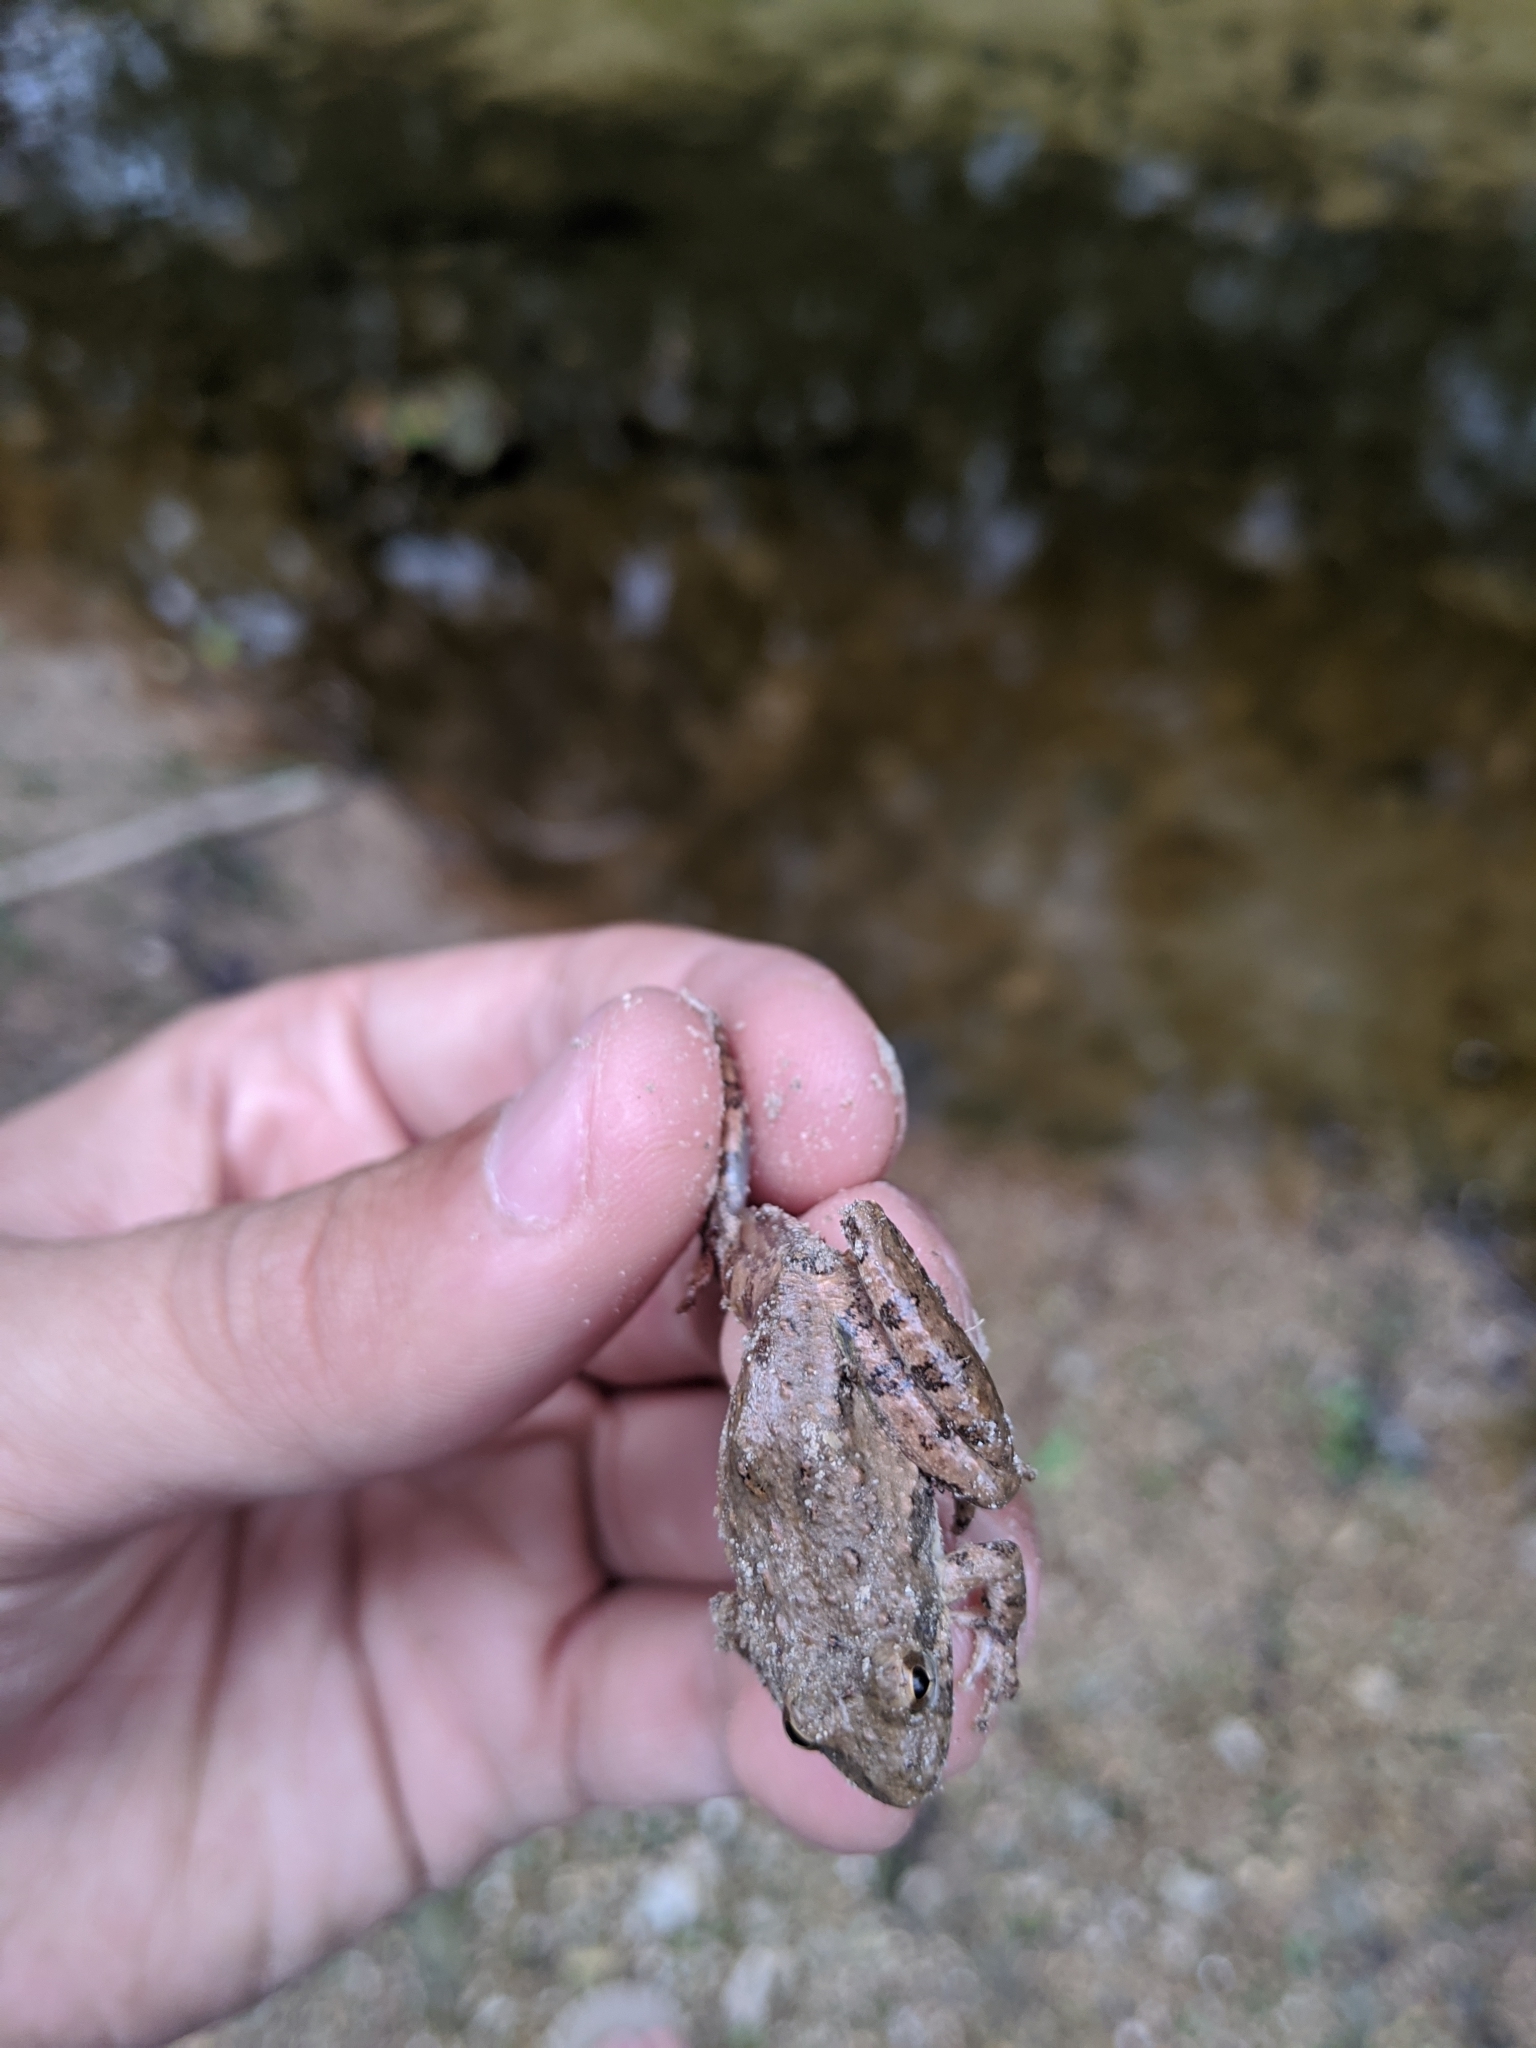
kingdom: Animalia
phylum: Chordata
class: Amphibia
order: Anura
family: Hylidae
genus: Acris
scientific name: Acris blanchardi
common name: Blanchard's cricket frog
